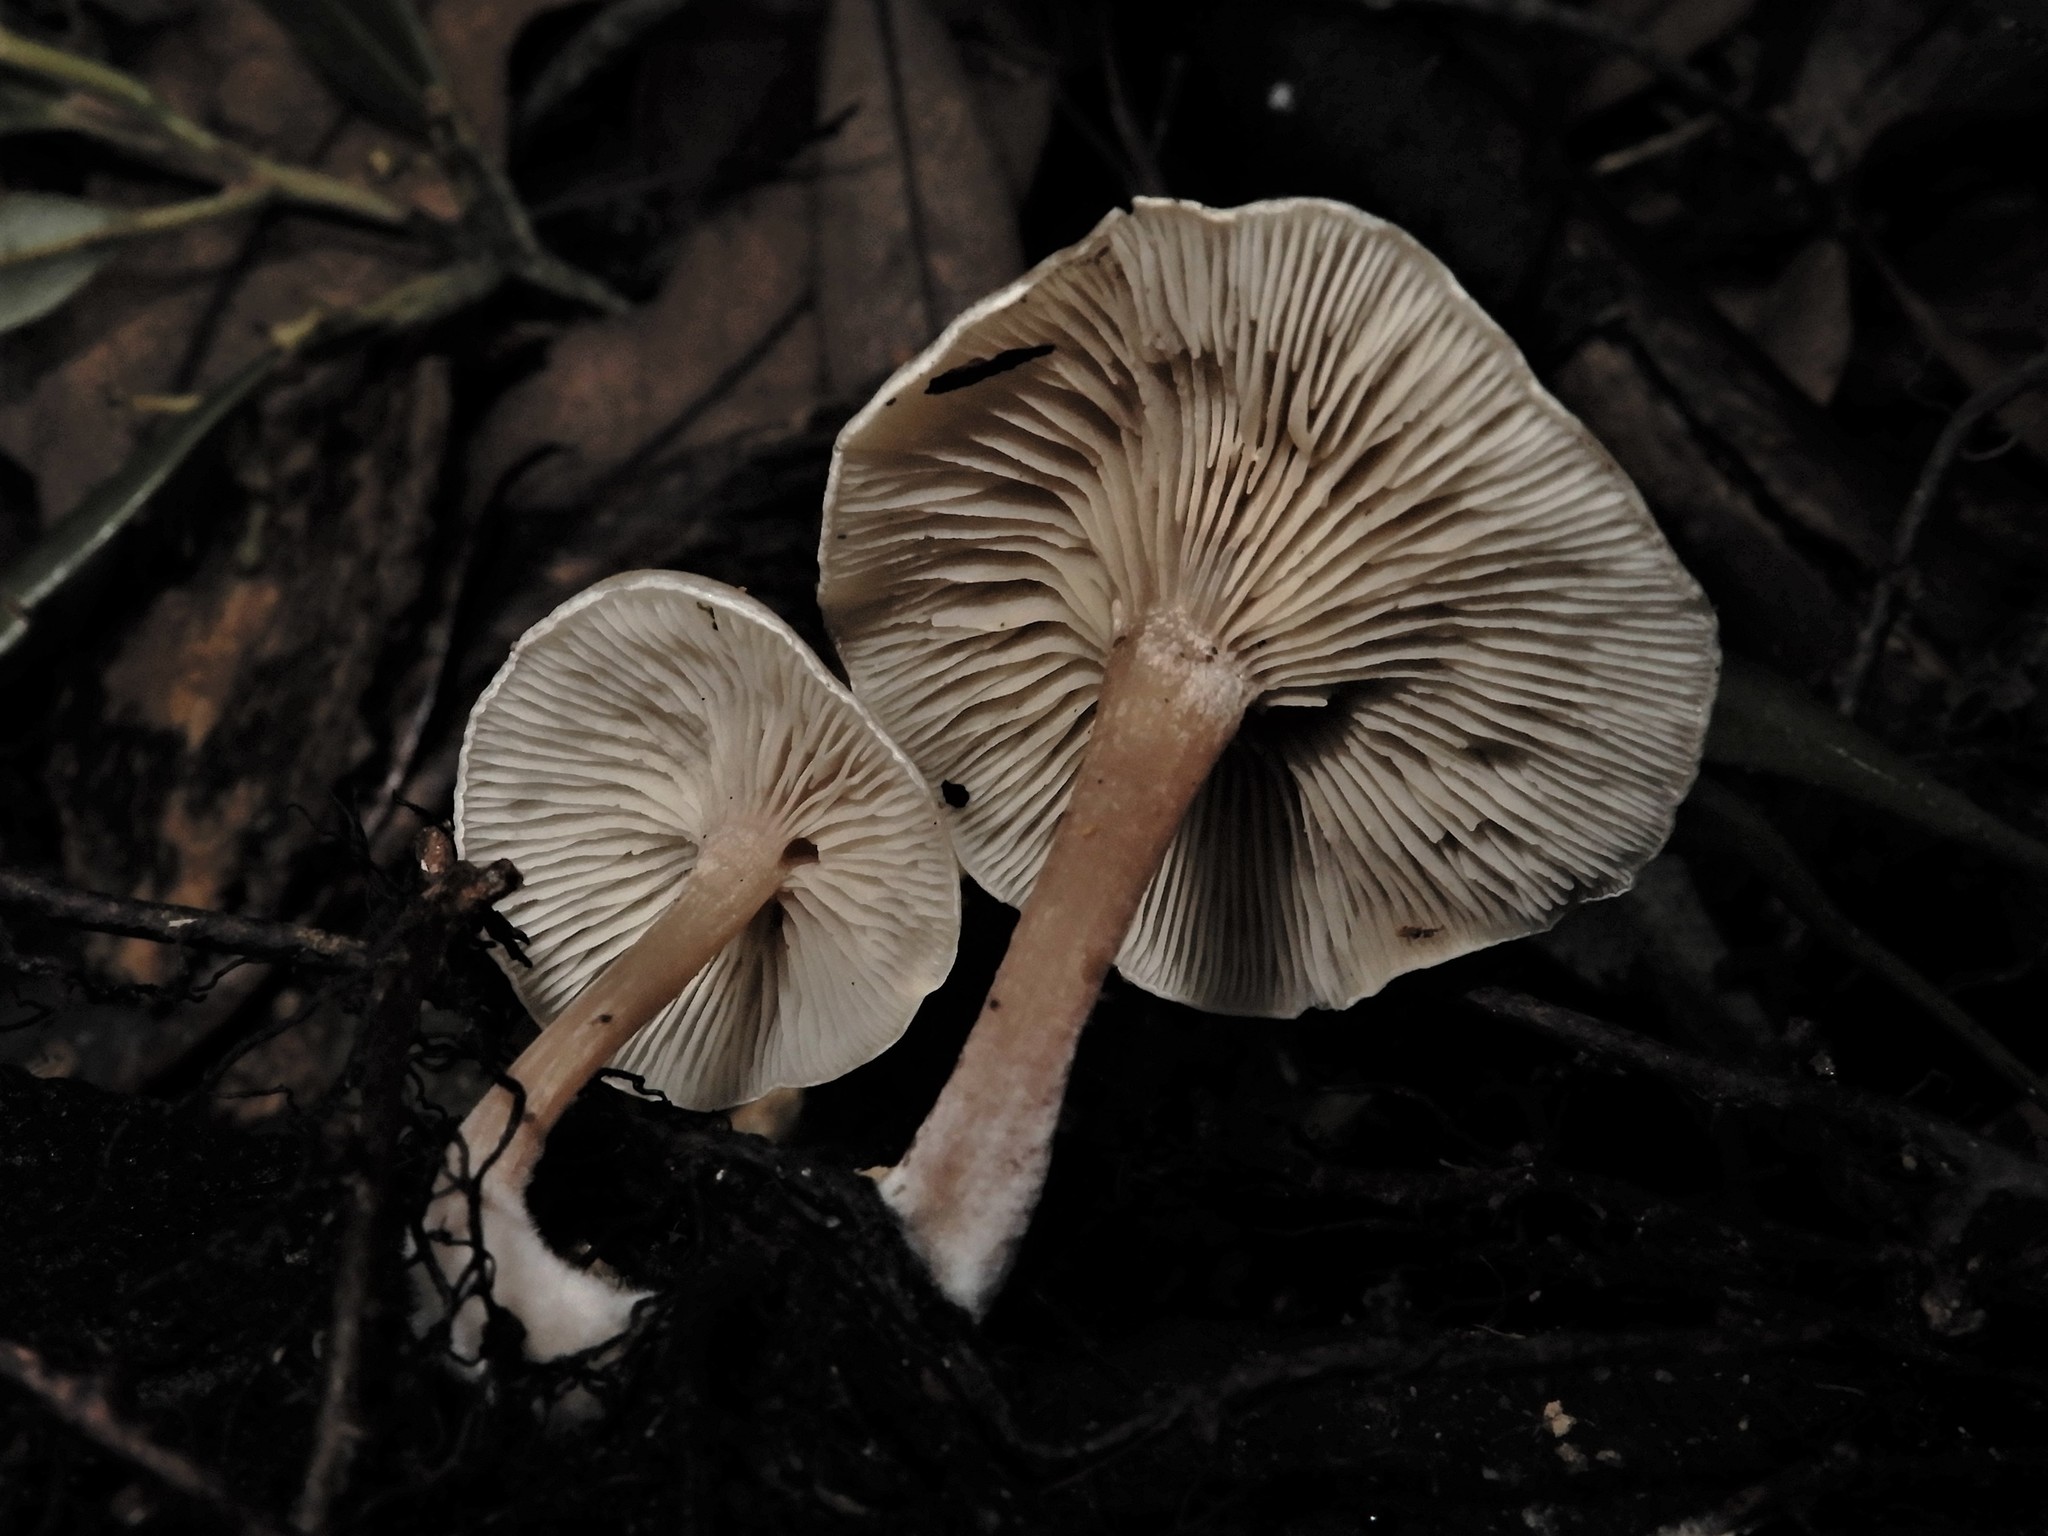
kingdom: Fungi
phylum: Basidiomycota
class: Agaricomycetes
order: Agaricales
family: Tricholomataceae
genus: Clitocybe
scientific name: Clitocybe wellingtonensis
